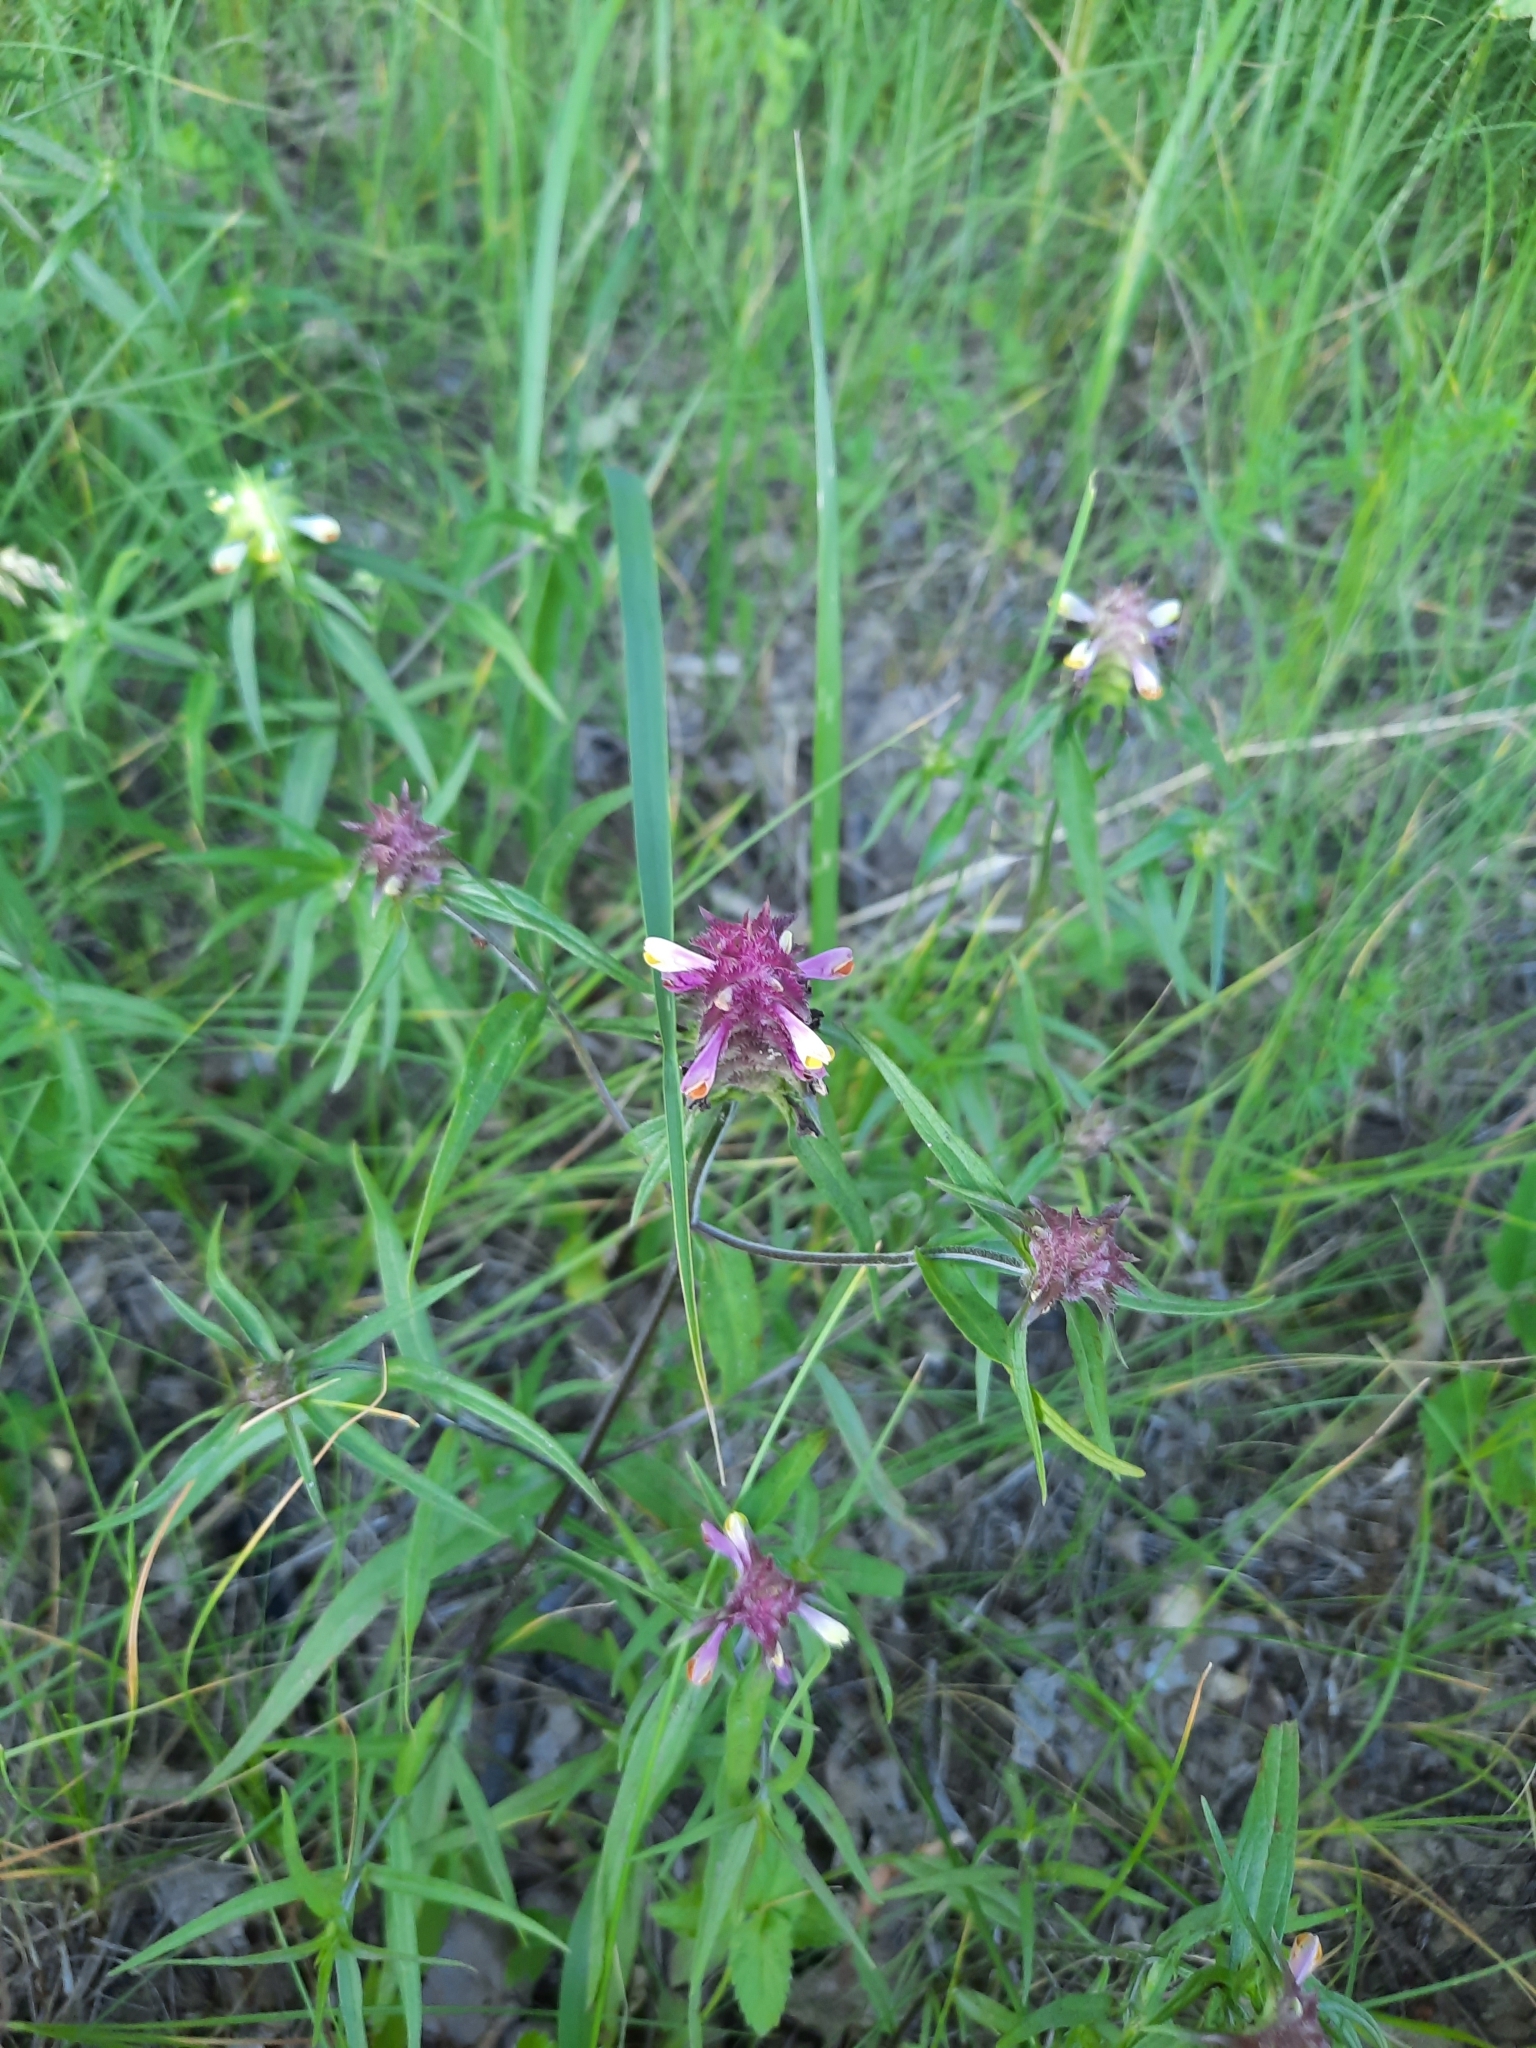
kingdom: Plantae
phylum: Tracheophyta
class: Magnoliopsida
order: Lamiales
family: Orobanchaceae
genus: Melampyrum
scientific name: Melampyrum cristatum
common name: Crested cow-wheat
